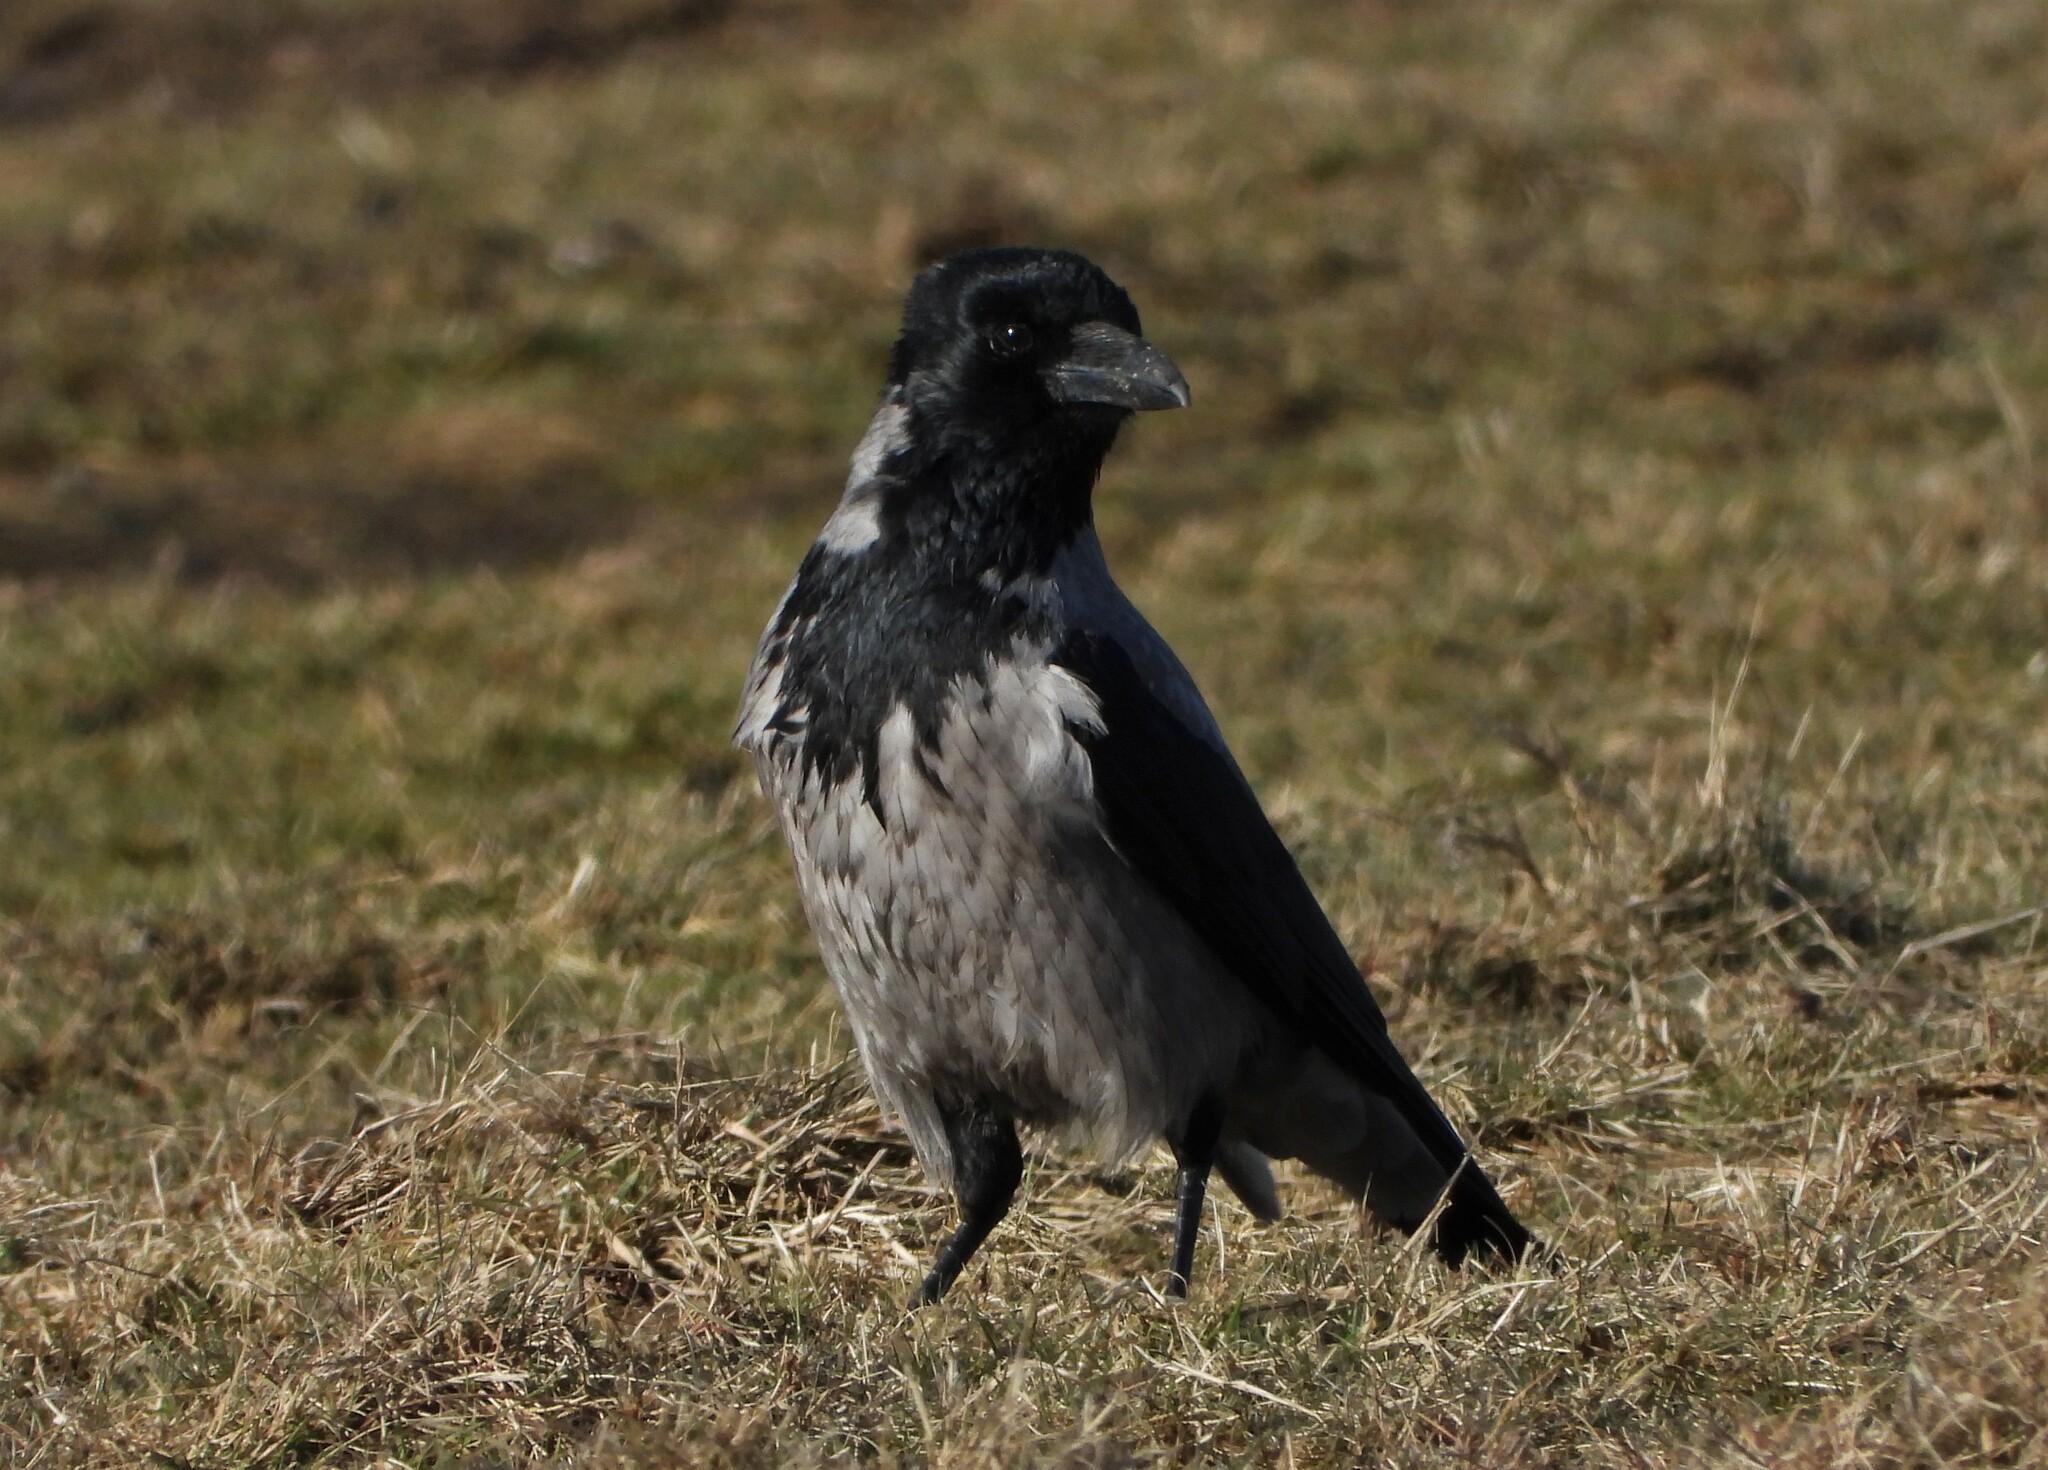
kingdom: Animalia
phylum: Chordata
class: Aves
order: Passeriformes
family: Corvidae
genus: Corvus
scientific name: Corvus cornix
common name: Hooded crow
